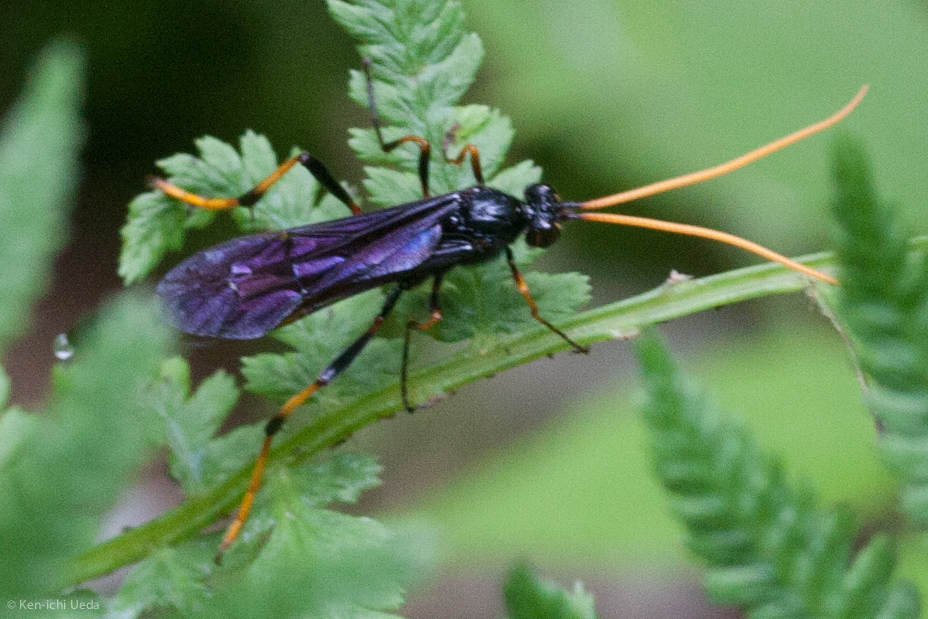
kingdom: Animalia
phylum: Arthropoda
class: Insecta
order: Hymenoptera
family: Ichneumonidae
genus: Therion
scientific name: Therion morio
